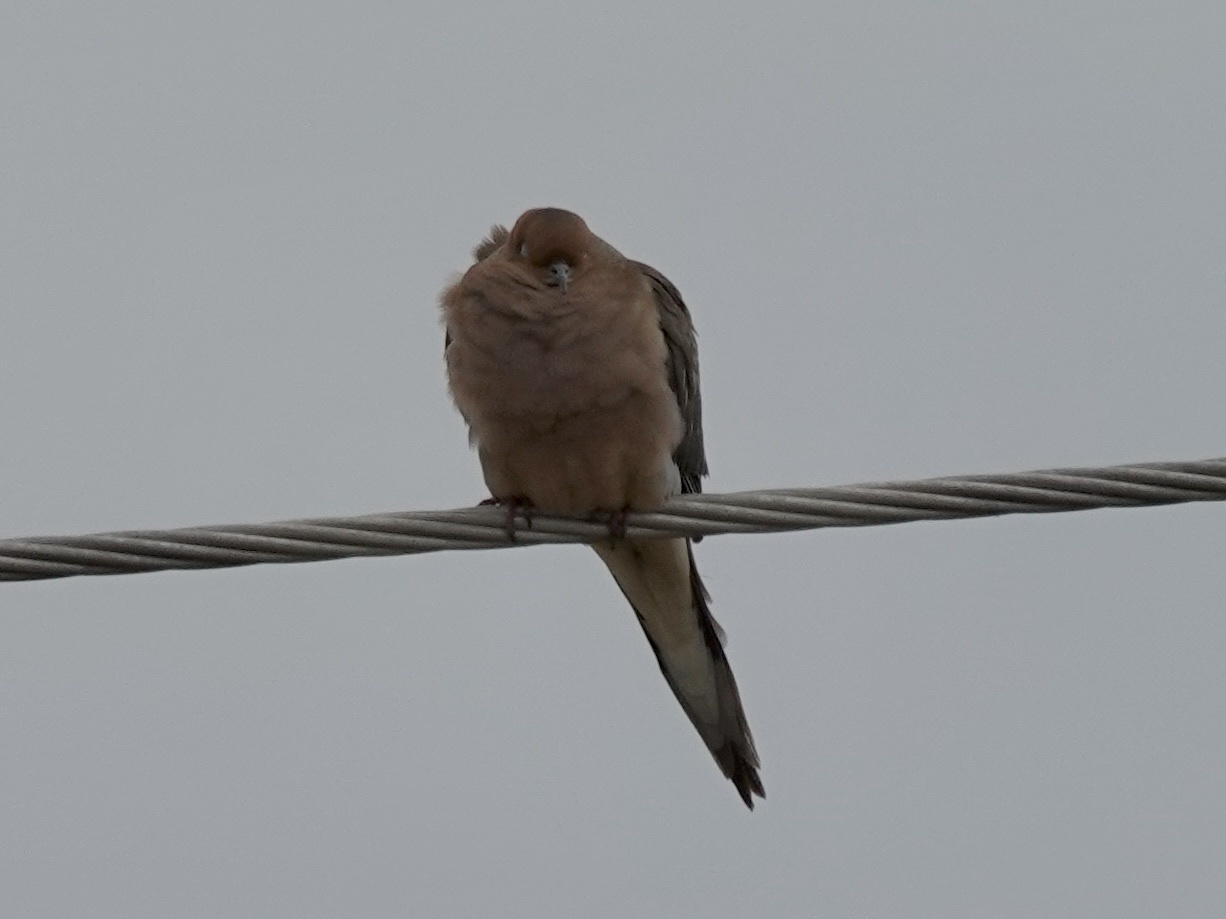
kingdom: Animalia
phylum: Chordata
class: Aves
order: Columbiformes
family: Columbidae
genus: Zenaida
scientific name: Zenaida macroura
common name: Mourning dove
